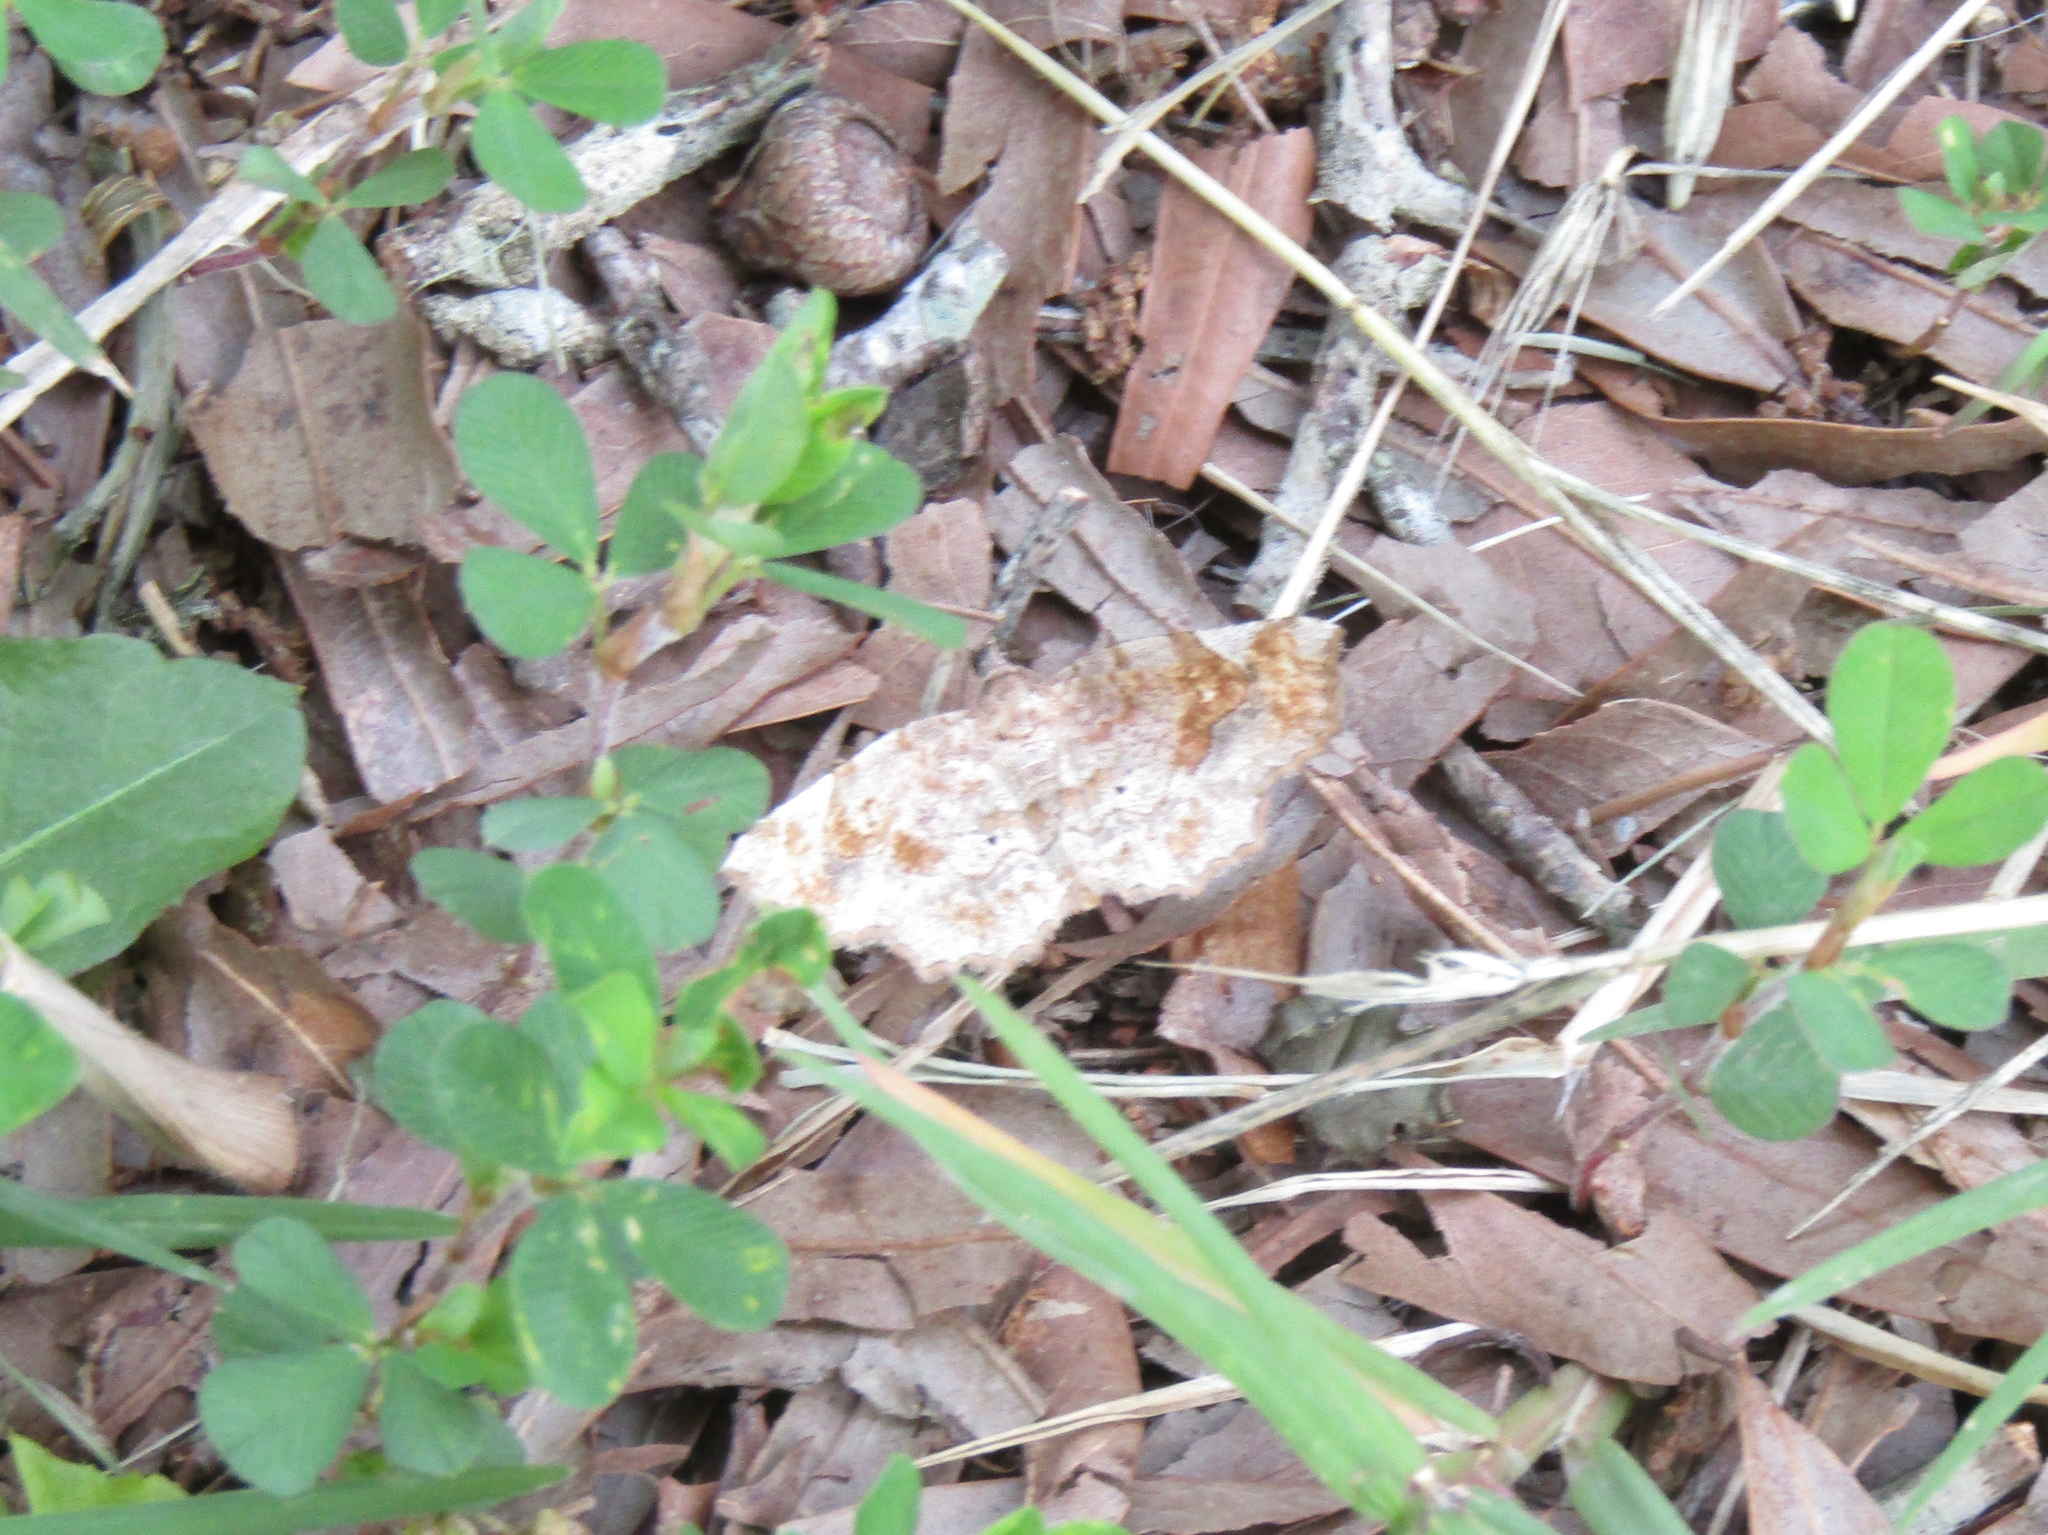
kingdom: Animalia
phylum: Arthropoda
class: Insecta
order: Lepidoptera
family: Erebidae
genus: Pangrapta
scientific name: Pangrapta decoralis
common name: Decorated owlet
